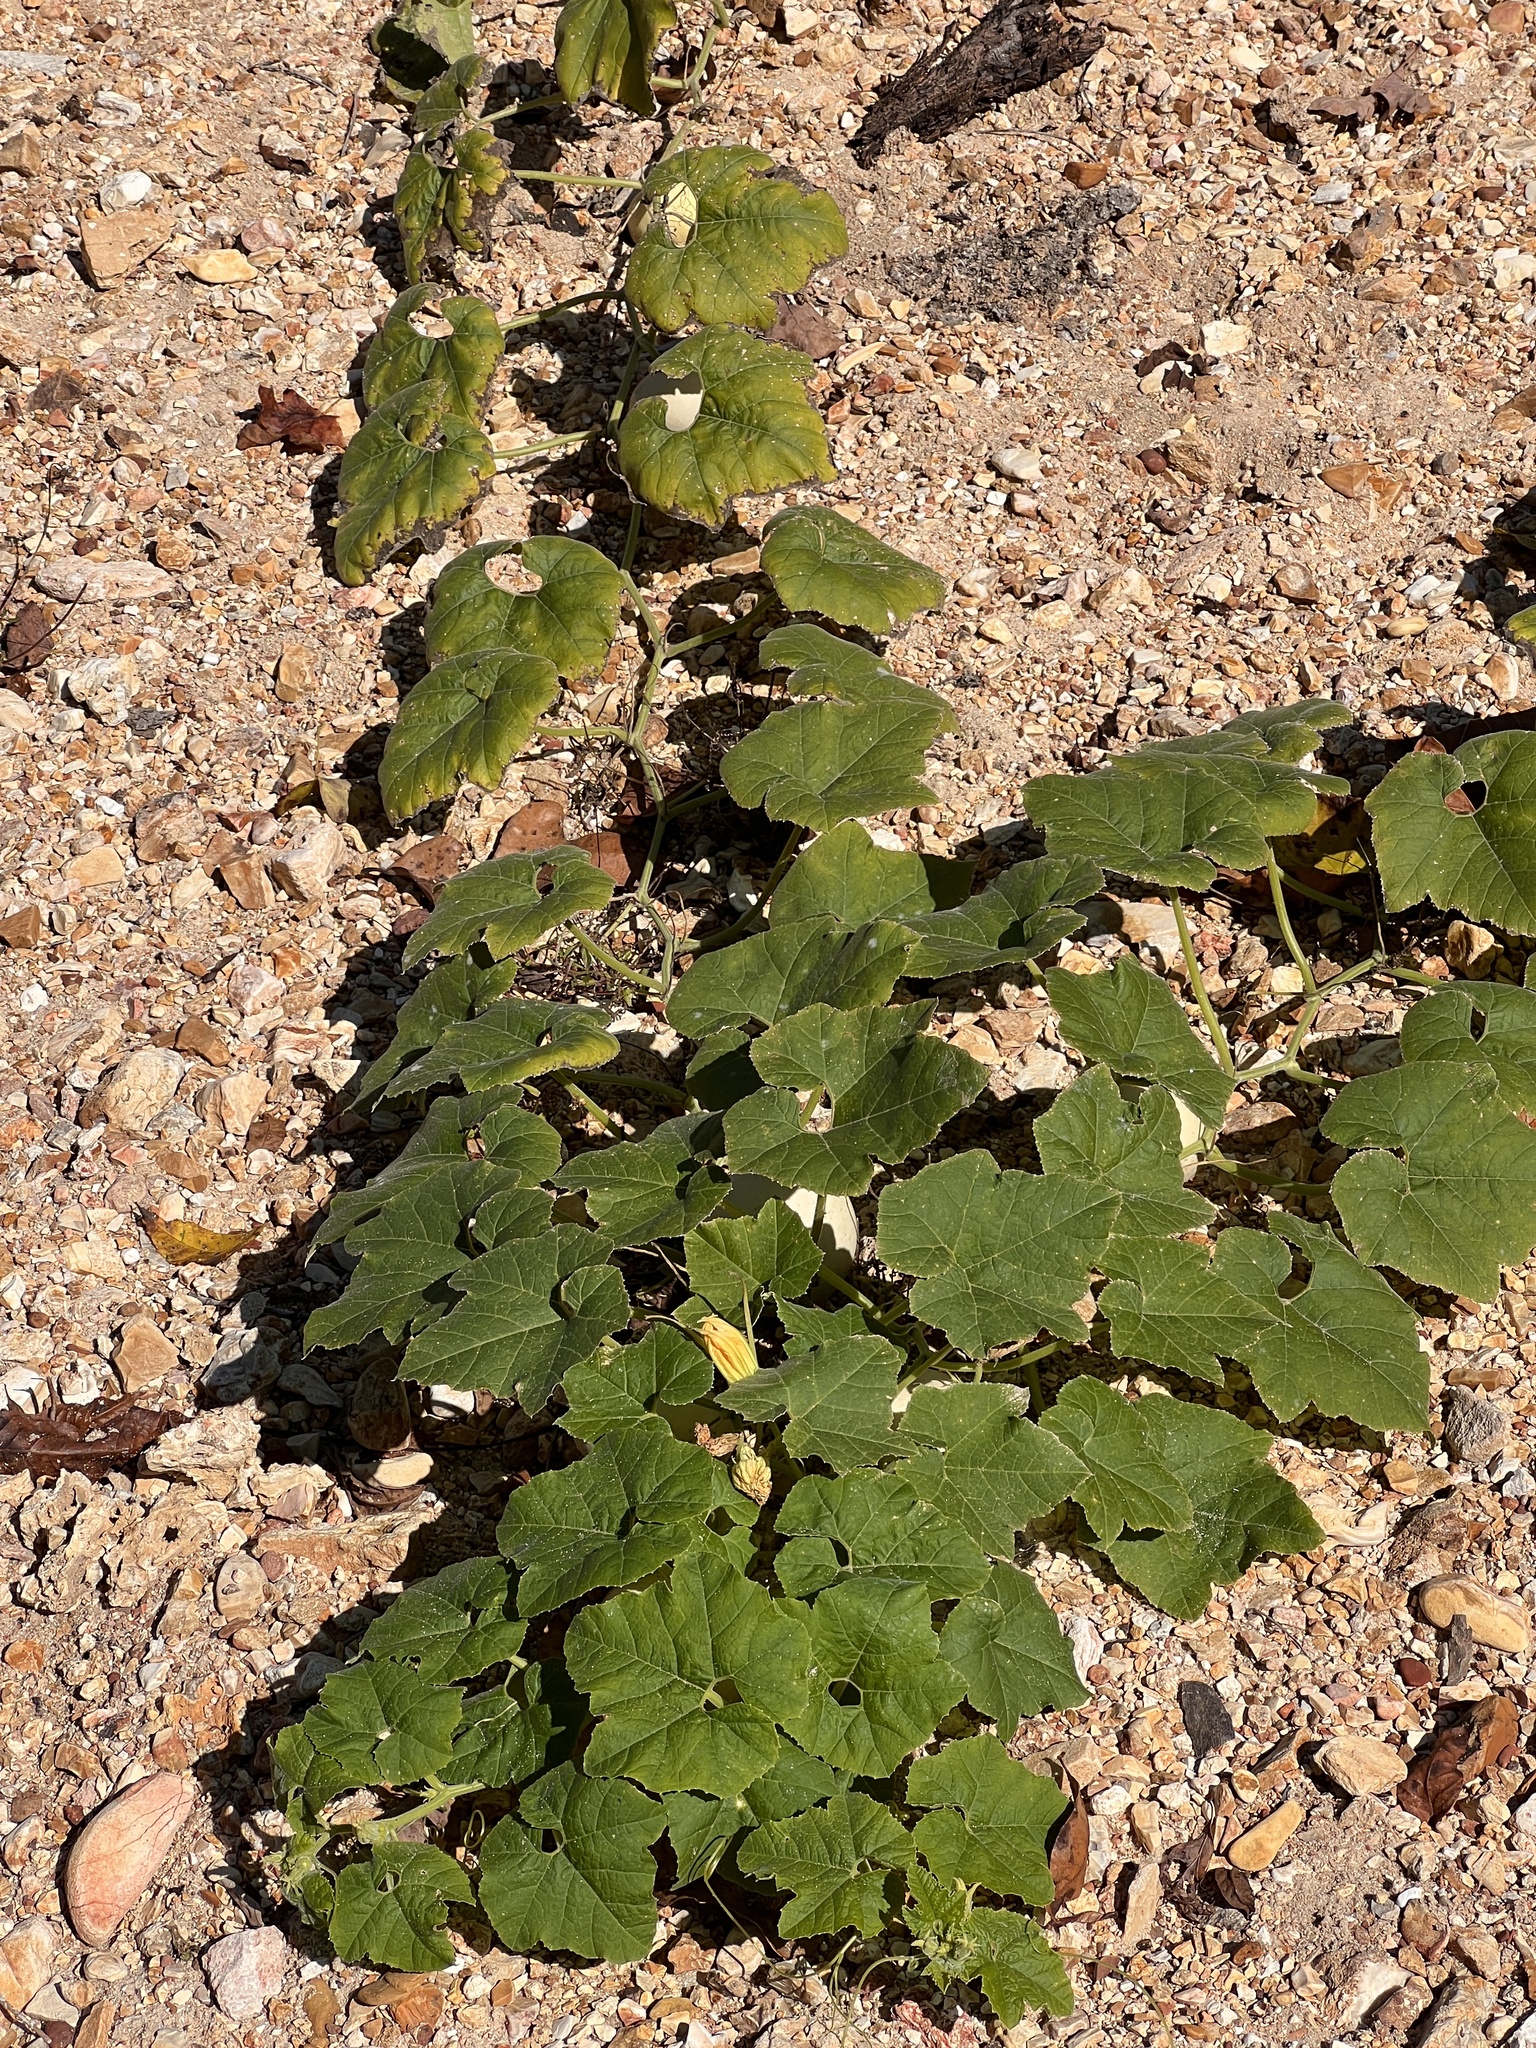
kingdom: Plantae
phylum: Tracheophyta
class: Magnoliopsida
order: Cucurbitales
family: Cucurbitaceae
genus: Cucurbita
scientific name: Cucurbita melopepo
